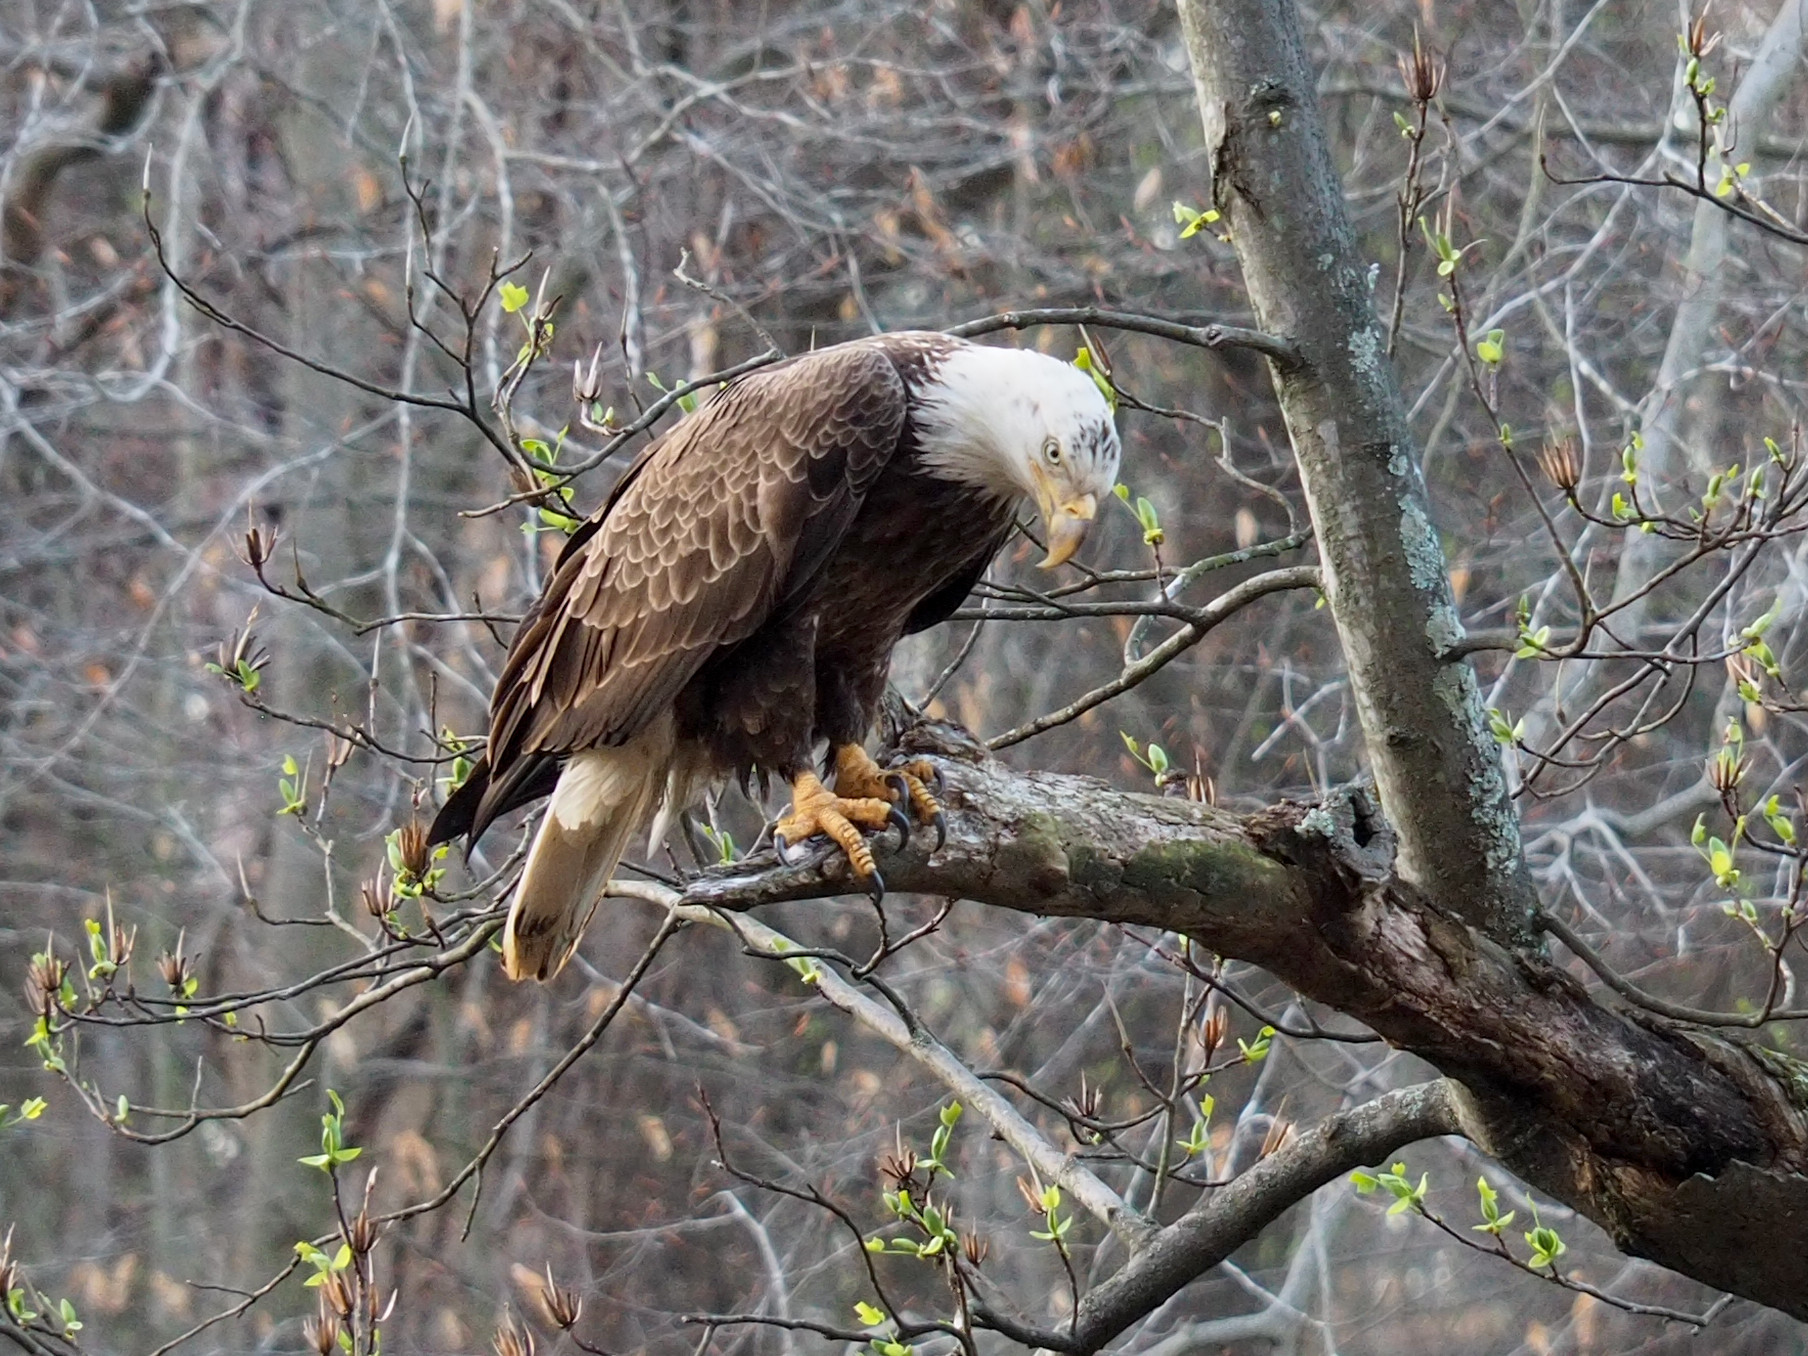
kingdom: Animalia
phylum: Chordata
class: Aves
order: Accipitriformes
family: Accipitridae
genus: Haliaeetus
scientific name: Haliaeetus leucocephalus
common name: Bald eagle
